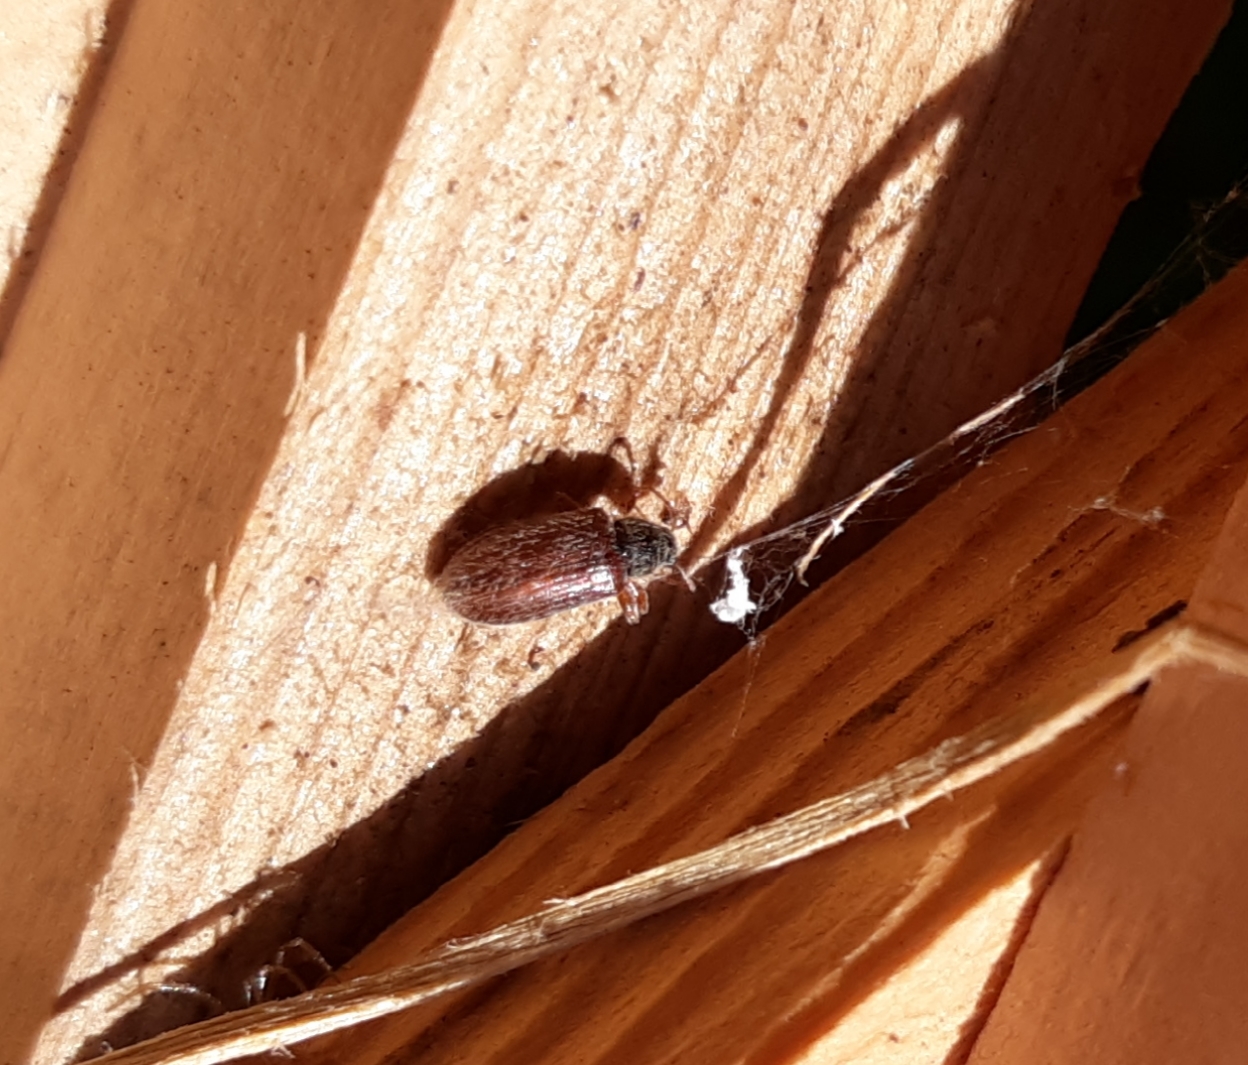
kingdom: Animalia
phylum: Arthropoda
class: Insecta
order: Coleoptera
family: Curculionidae
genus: Phyllobius
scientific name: Phyllobius oblongus
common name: Brown leaf weevil
